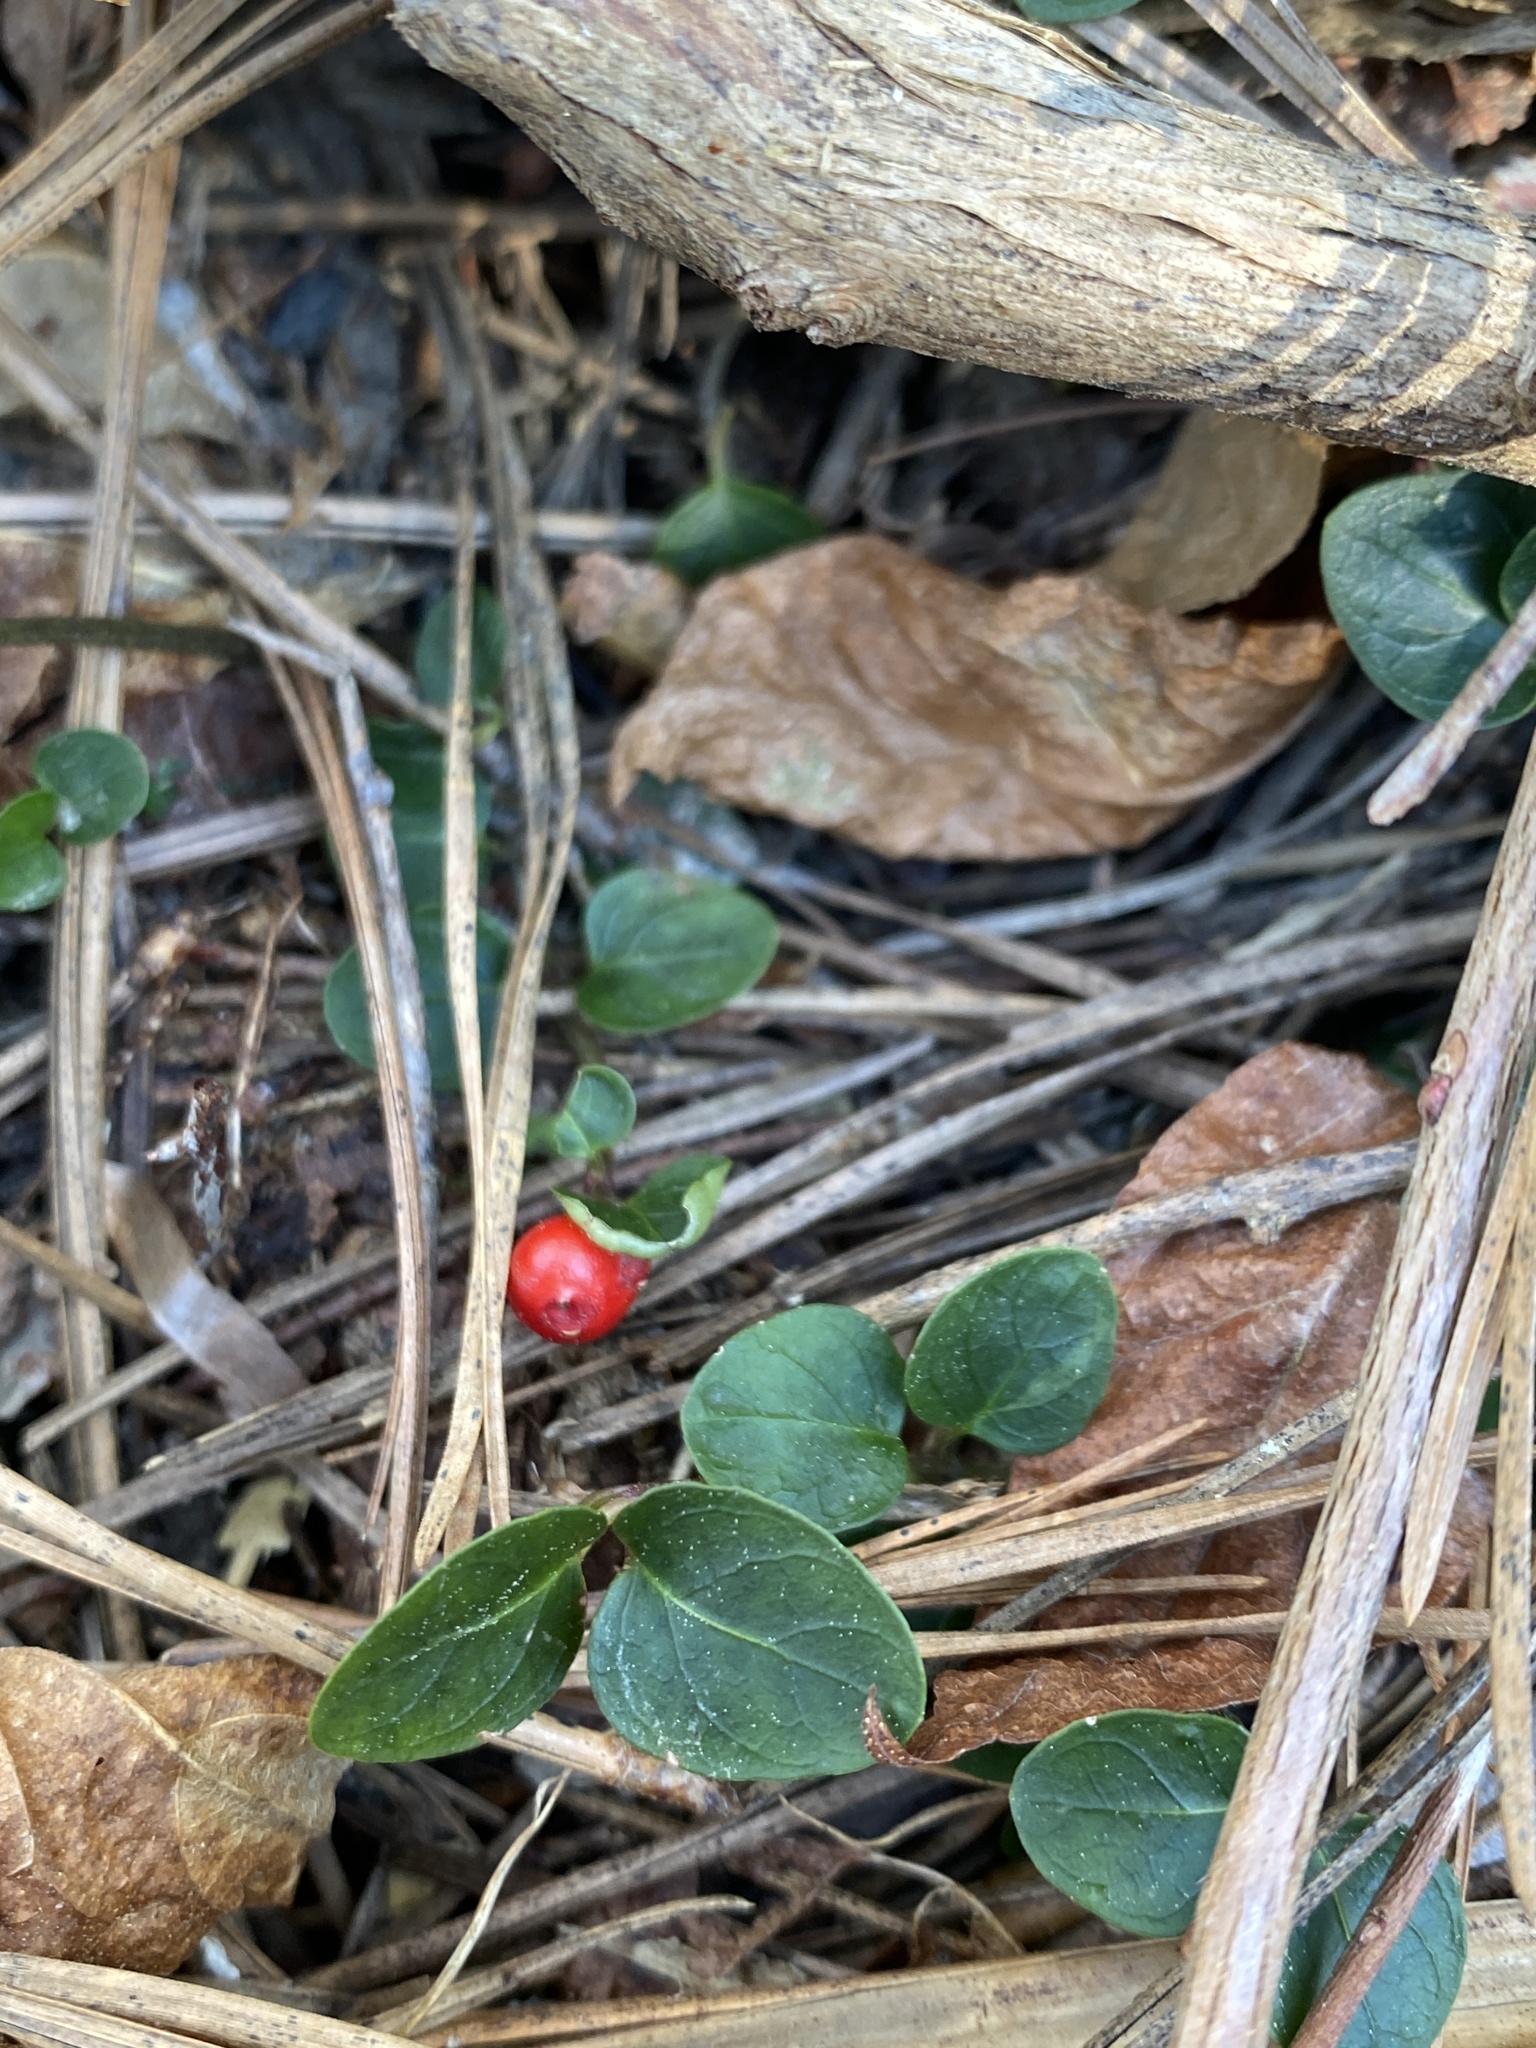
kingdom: Plantae
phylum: Tracheophyta
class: Magnoliopsida
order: Gentianales
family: Rubiaceae
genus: Mitchella
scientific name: Mitchella repens
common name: Partridge-berry
